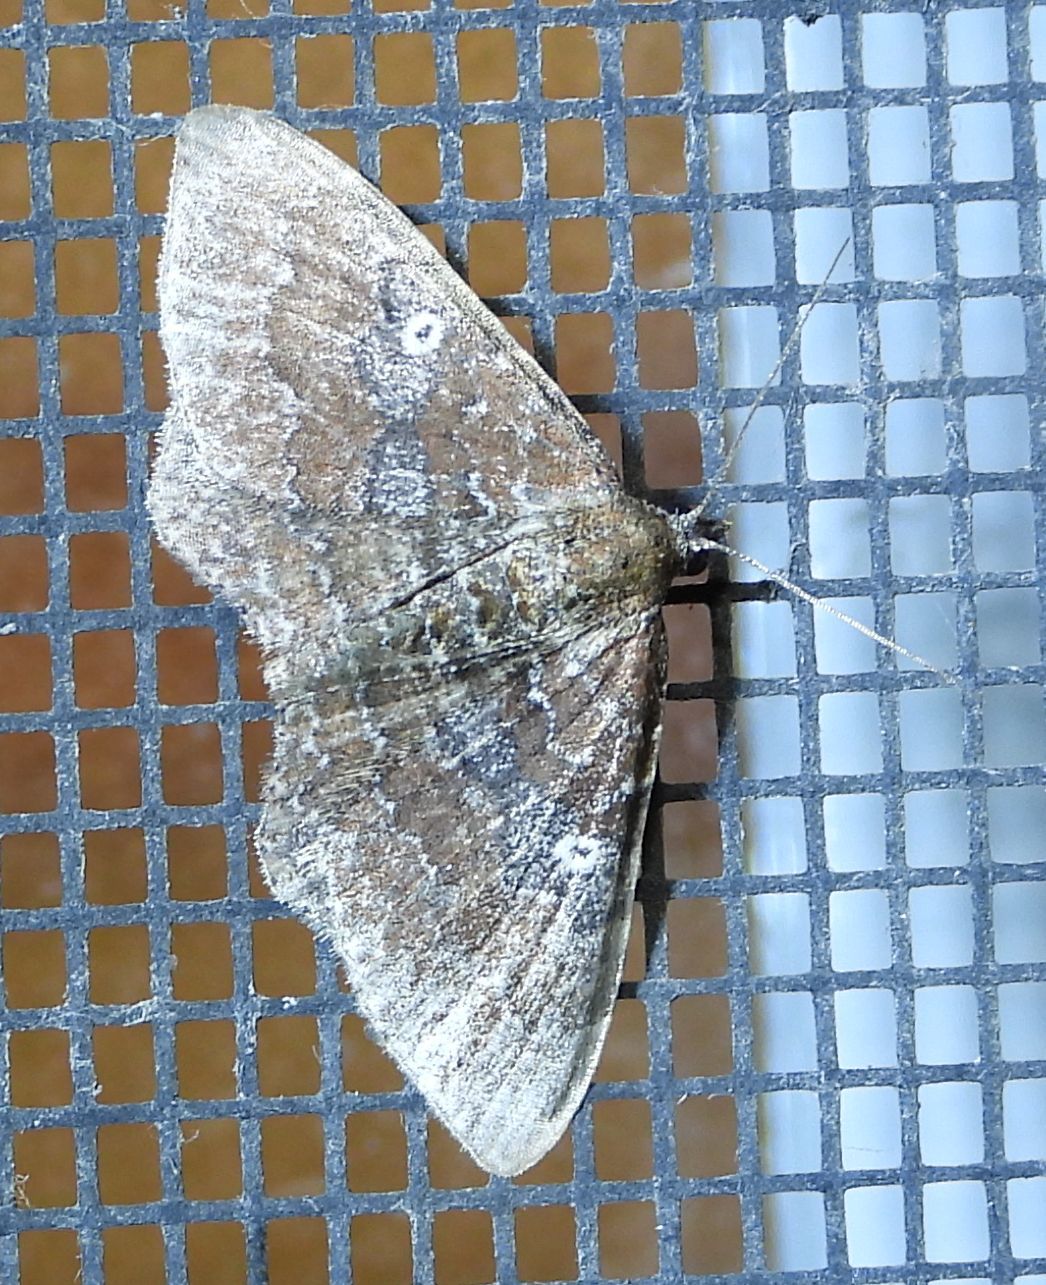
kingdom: Animalia
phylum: Arthropoda
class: Insecta
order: Lepidoptera
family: Geometridae
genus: Orthonama
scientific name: Orthonama obstipata
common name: The gem
